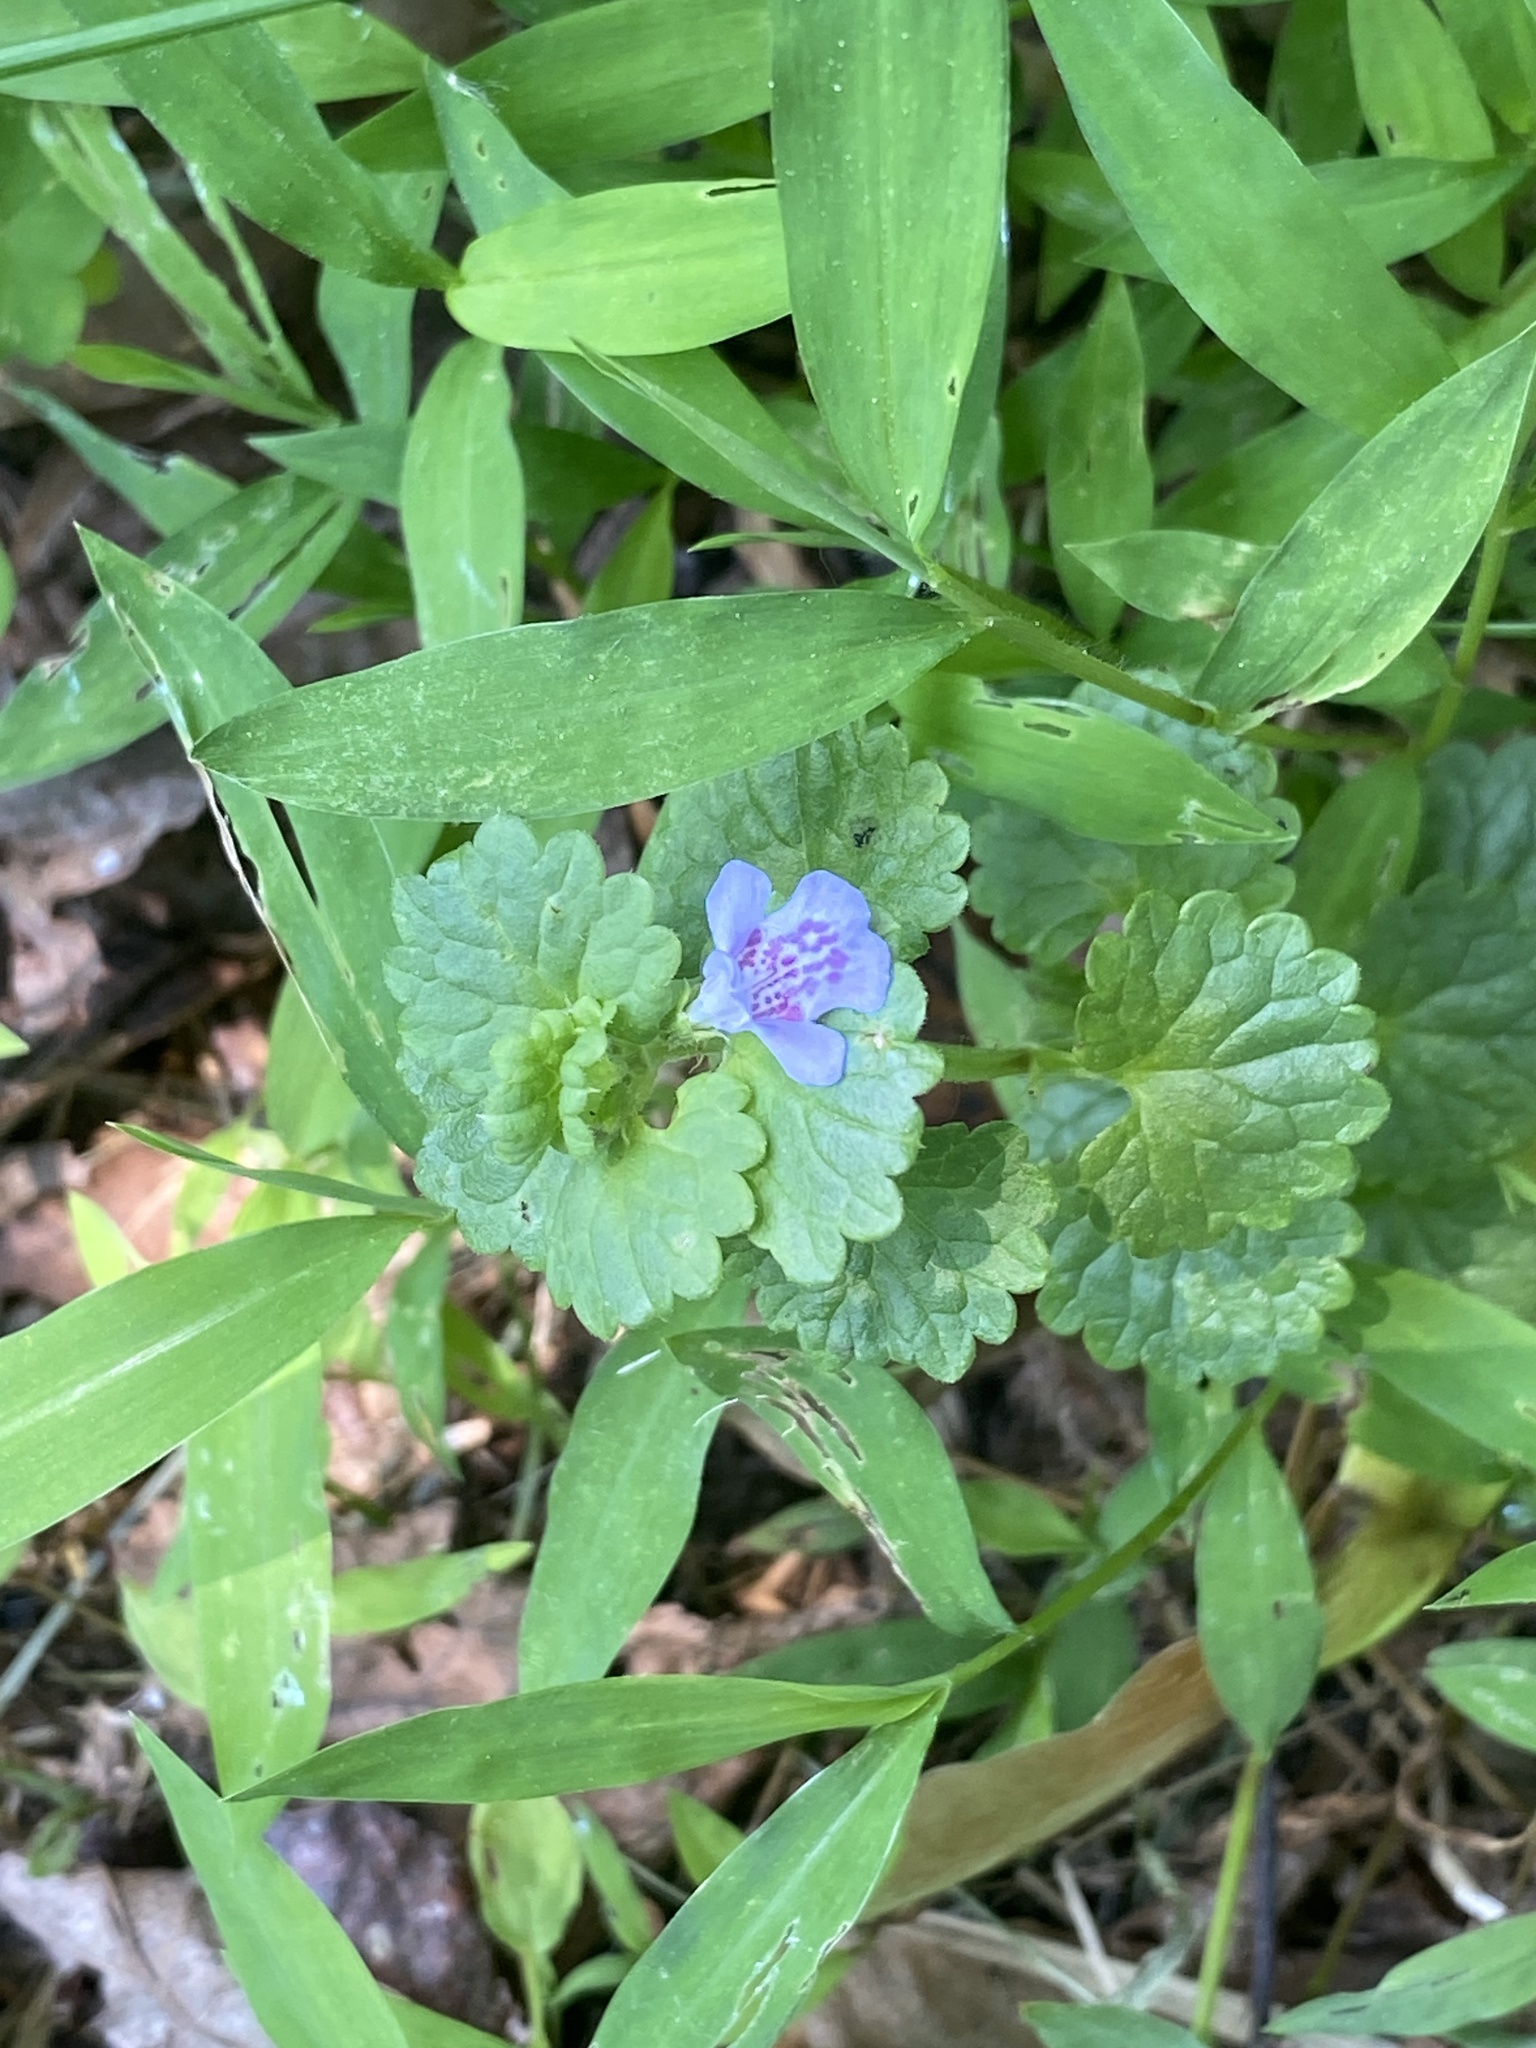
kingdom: Plantae
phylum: Tracheophyta
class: Magnoliopsida
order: Lamiales
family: Lamiaceae
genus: Glechoma
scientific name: Glechoma hederacea
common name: Ground ivy
